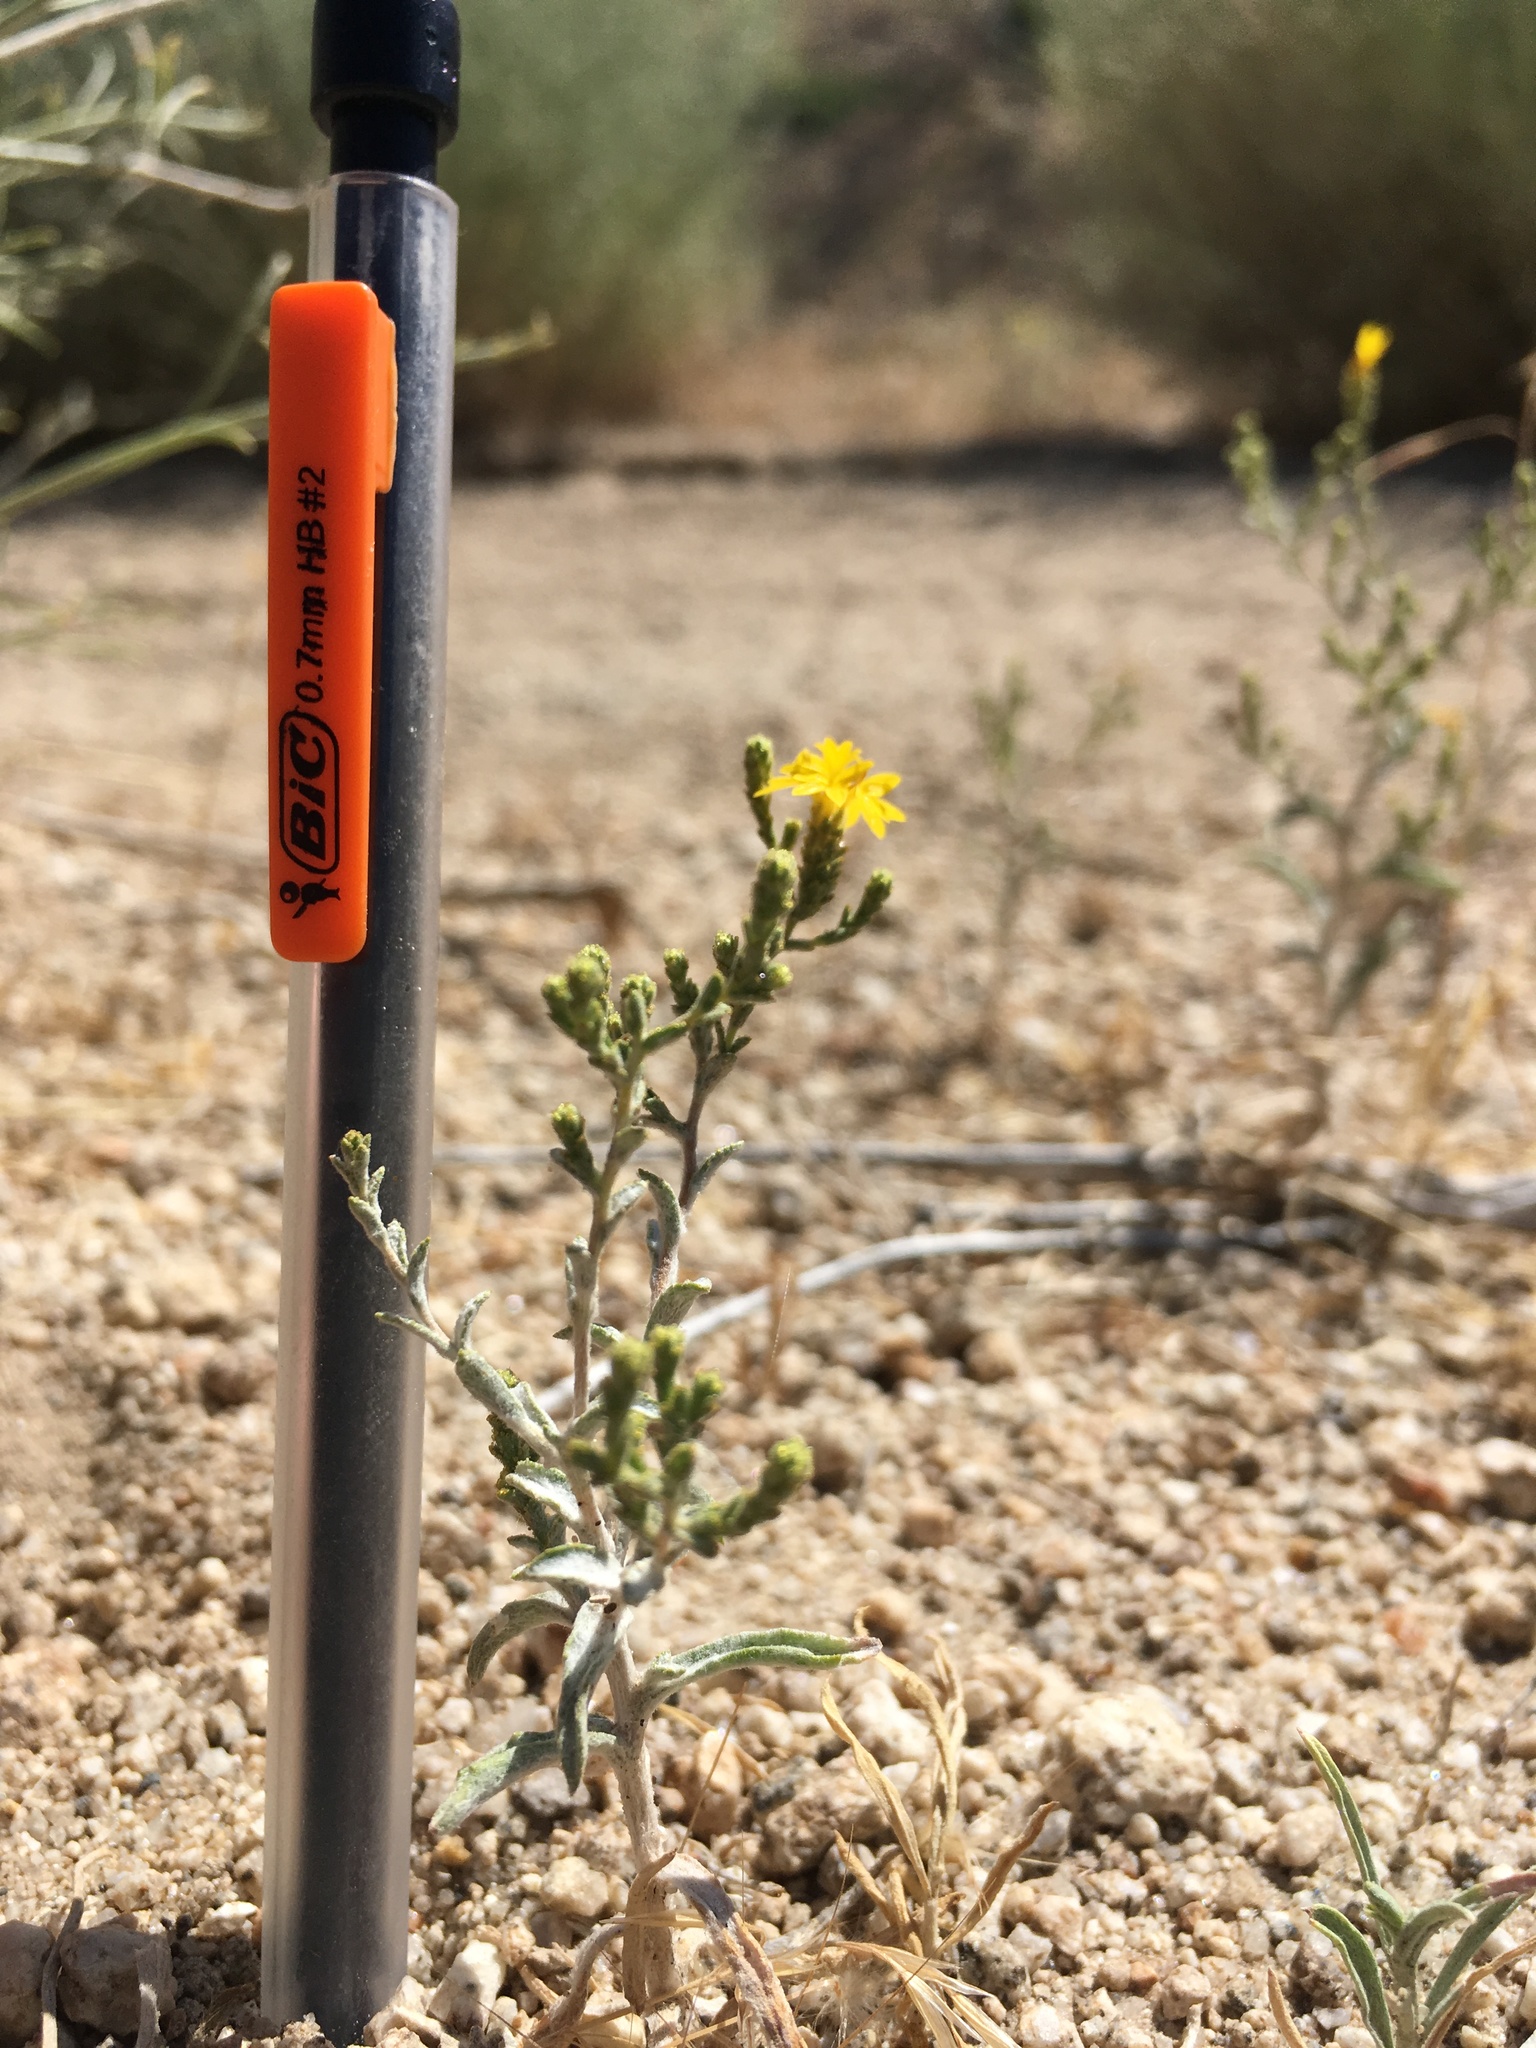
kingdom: Plantae
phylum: Tracheophyta
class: Magnoliopsida
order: Asterales
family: Asteraceae
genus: Lessingia
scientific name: Lessingia glandulifera
